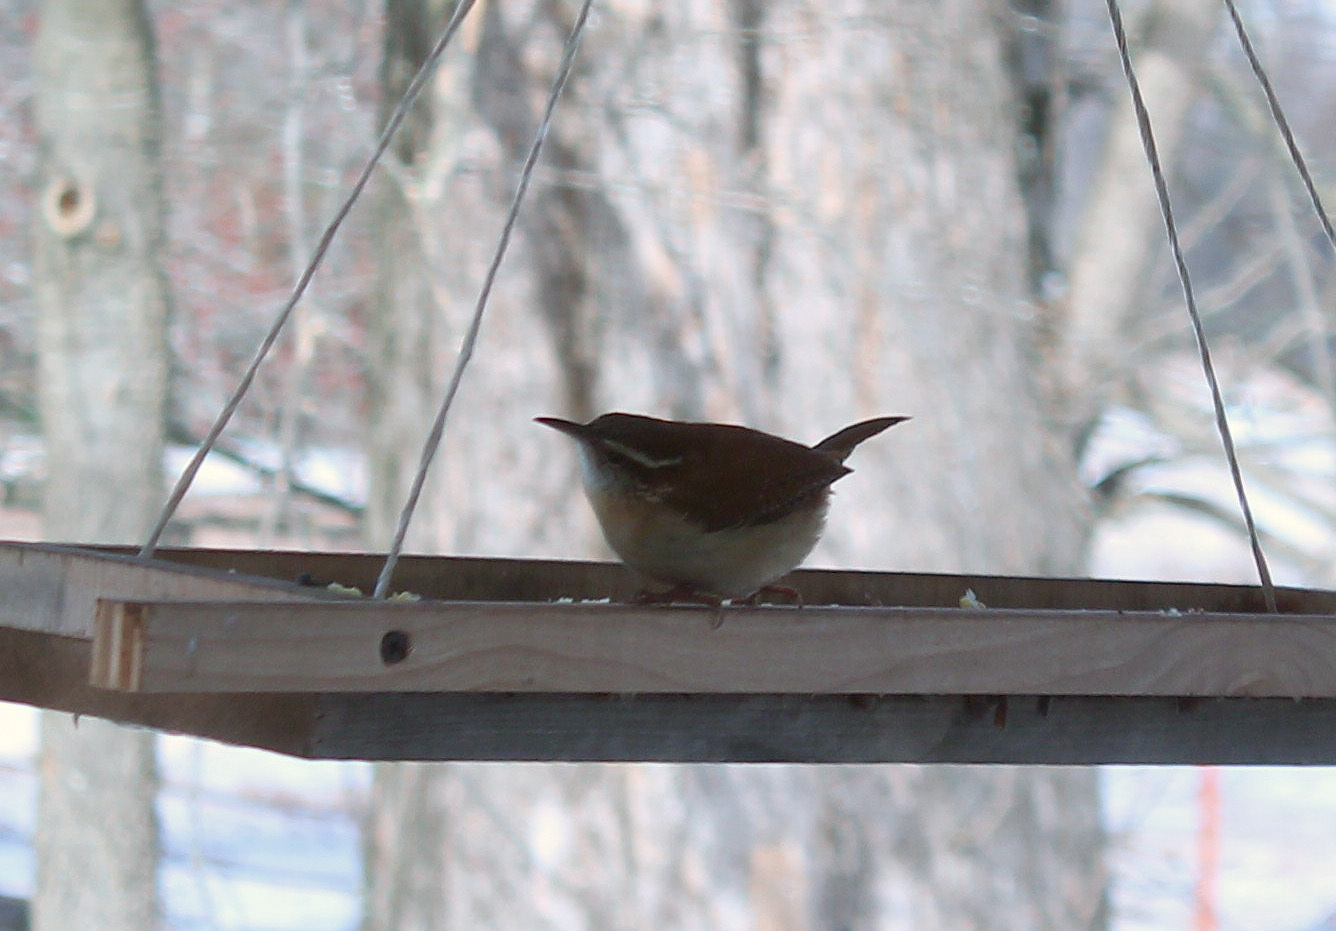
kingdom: Animalia
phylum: Chordata
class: Aves
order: Passeriformes
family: Troglodytidae
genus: Thryothorus
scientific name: Thryothorus ludovicianus
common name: Carolina wren
